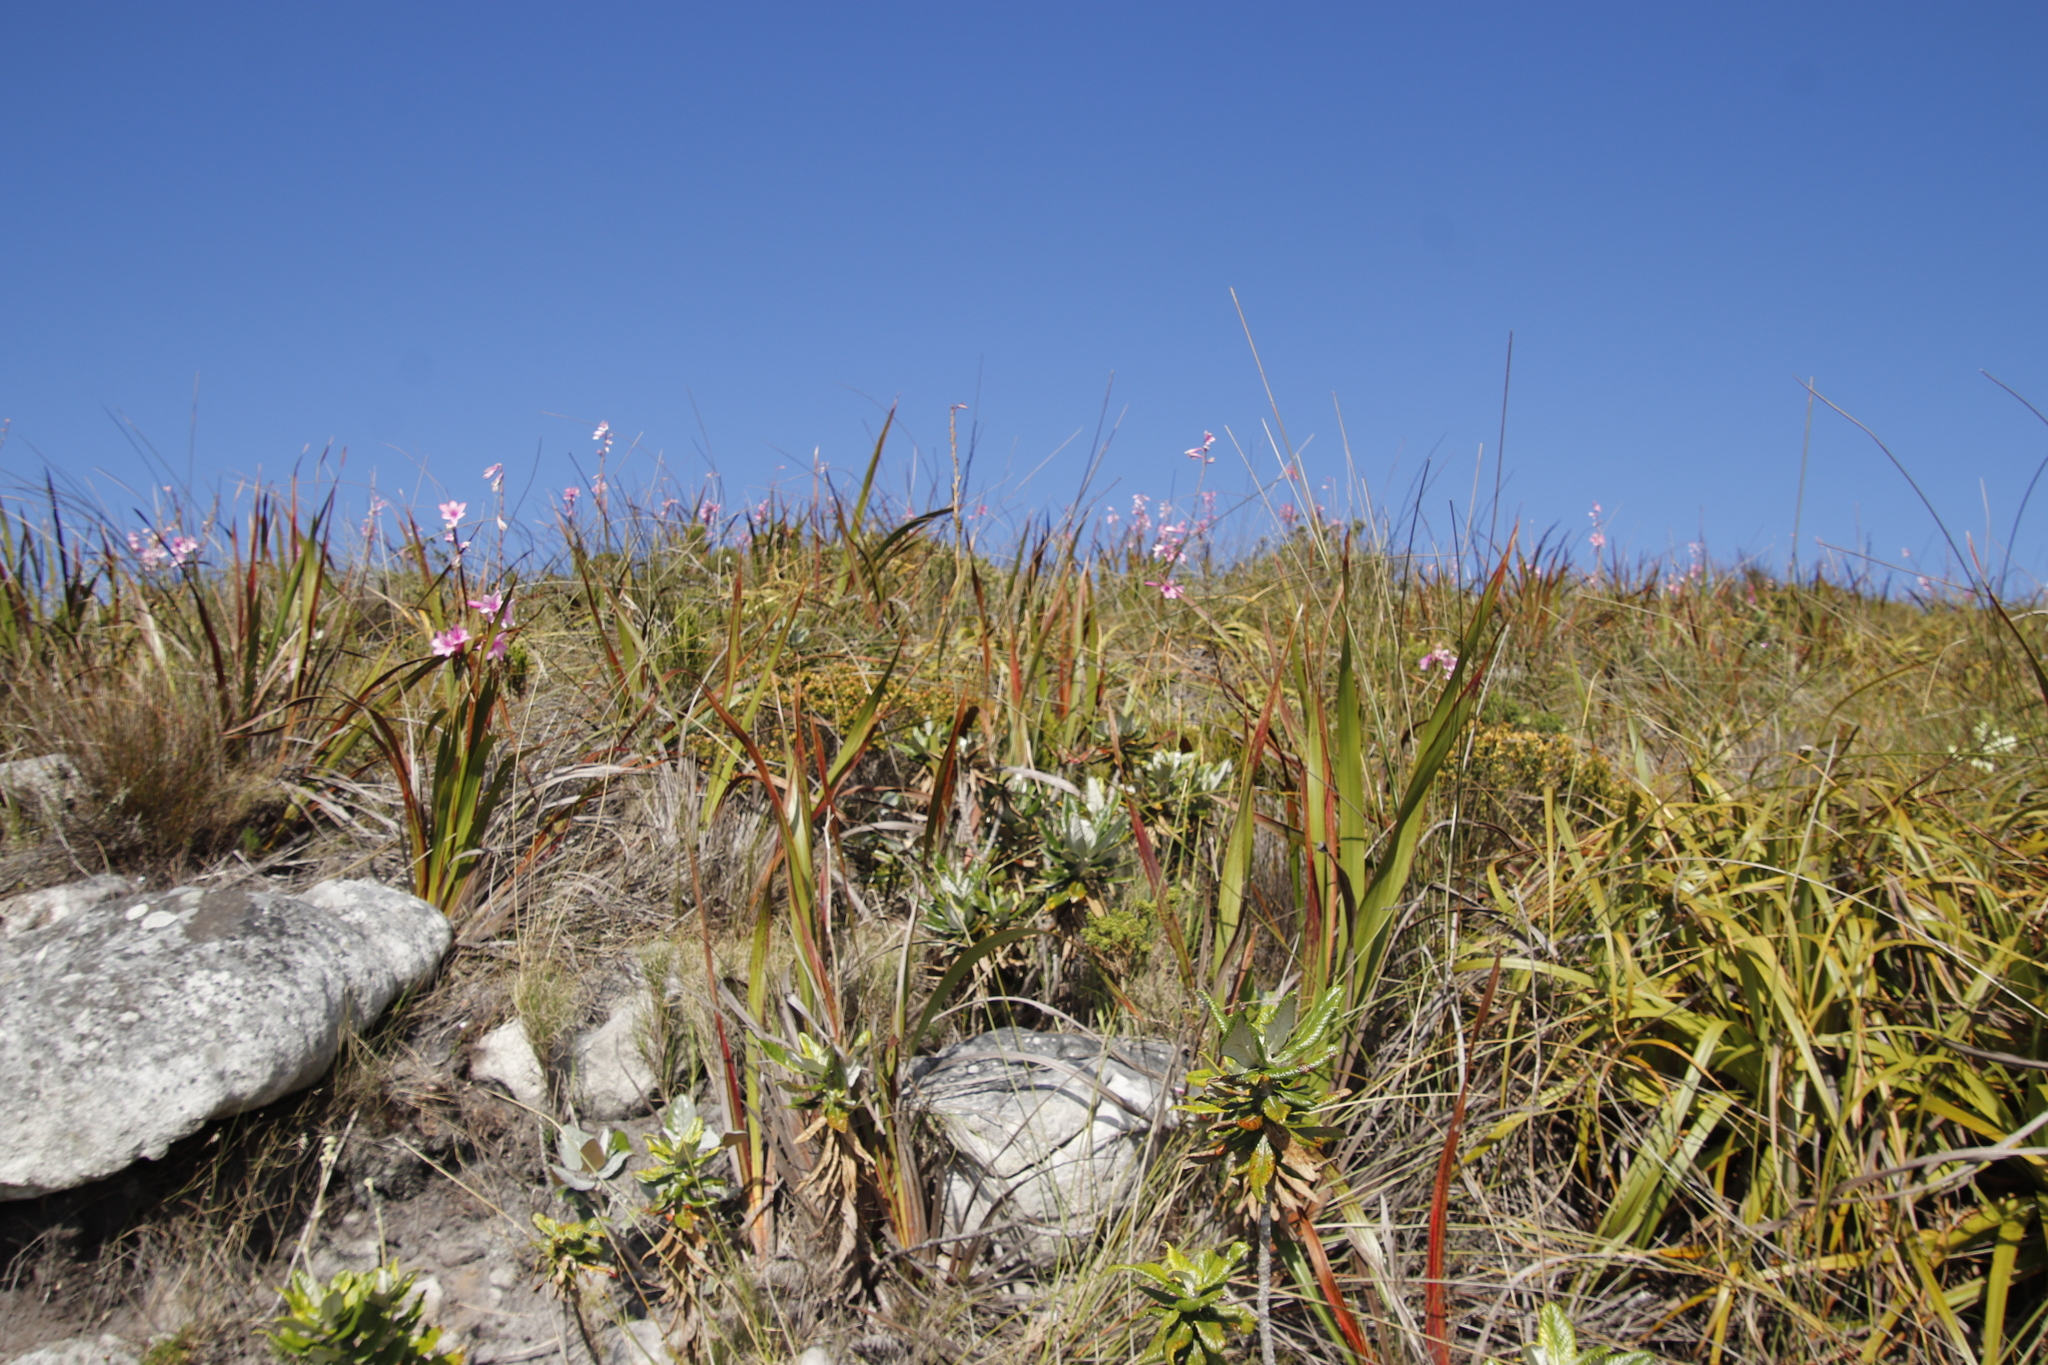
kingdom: Plantae
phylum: Tracheophyta
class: Magnoliopsida
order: Apiales
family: Apiaceae
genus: Hermas
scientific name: Hermas villosa
